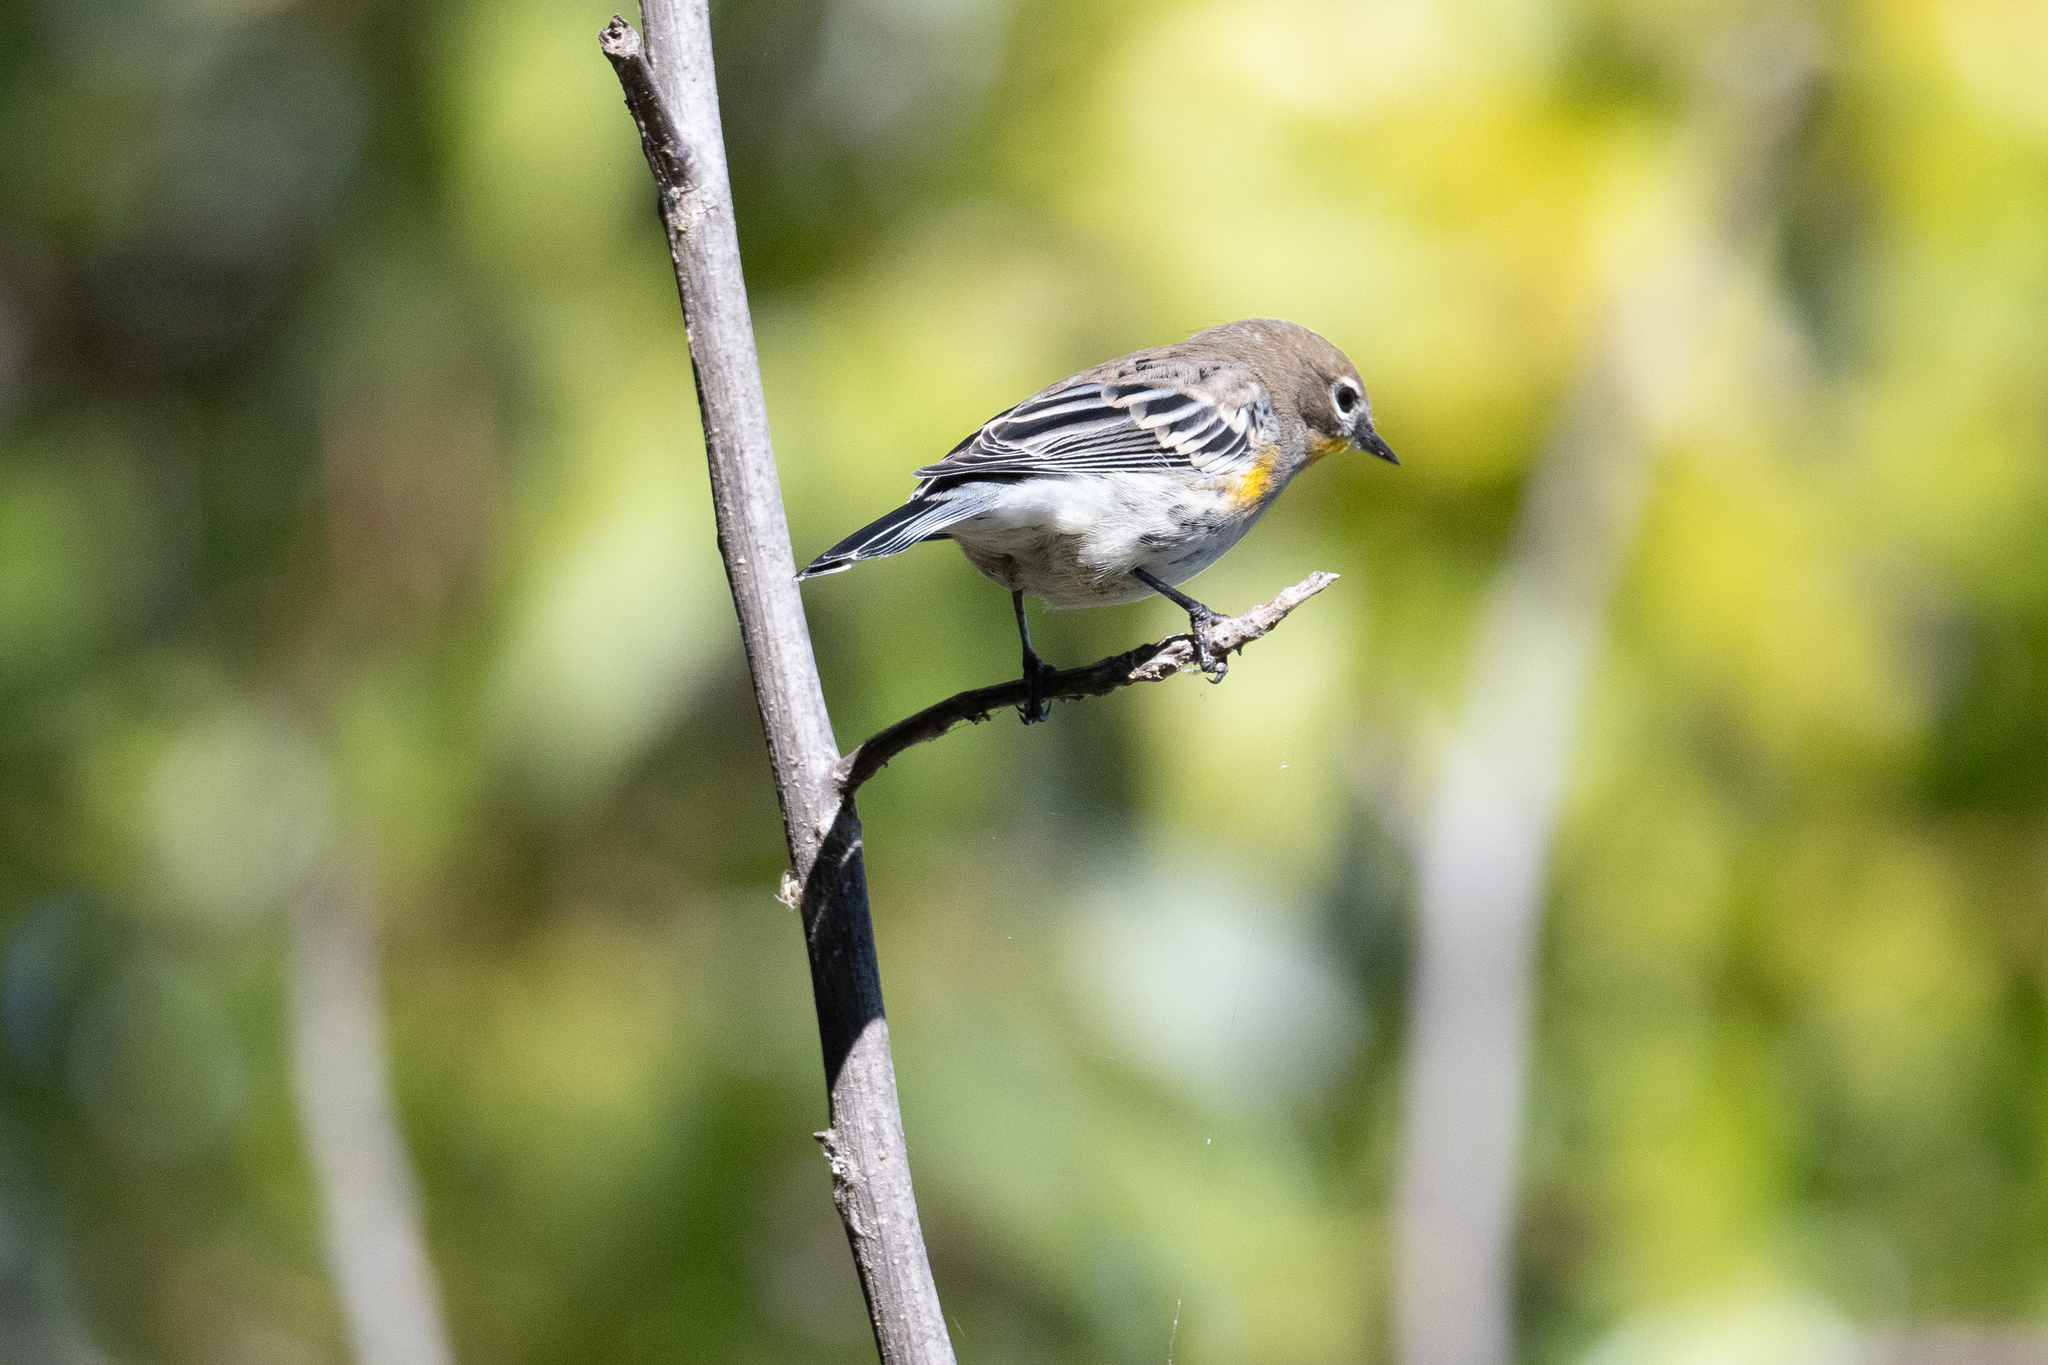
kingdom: Animalia
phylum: Chordata
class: Aves
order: Passeriformes
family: Parulidae
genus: Setophaga
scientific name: Setophaga coronata
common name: Myrtle warbler
